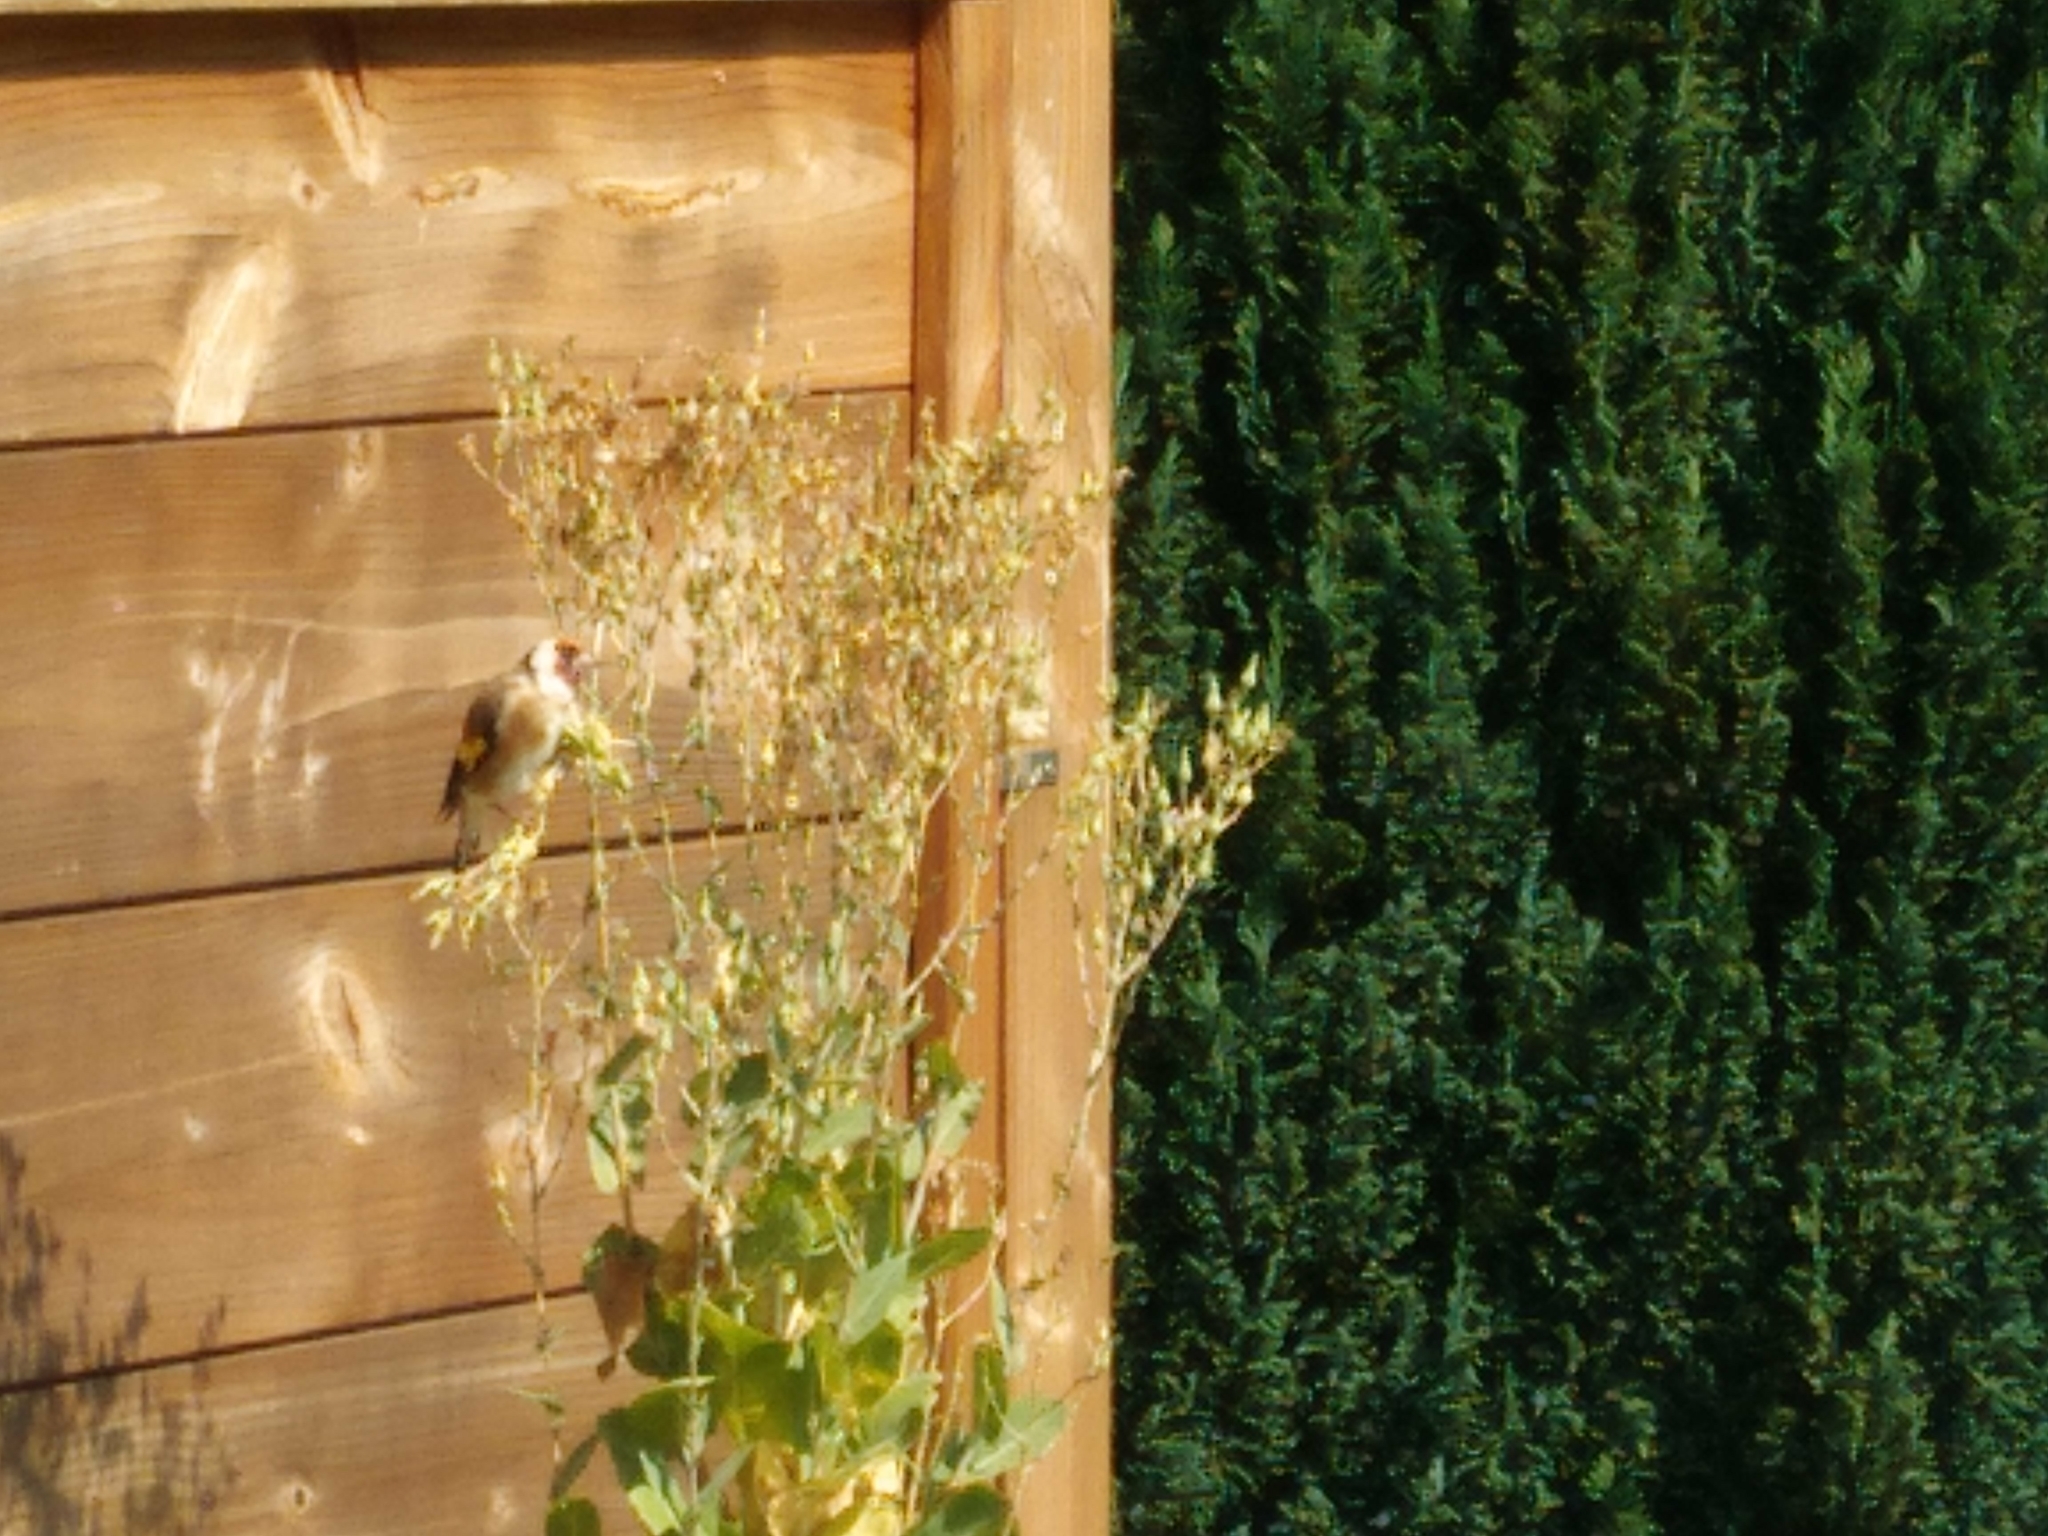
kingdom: Animalia
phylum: Chordata
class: Aves
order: Passeriformes
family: Fringillidae
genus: Carduelis
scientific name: Carduelis carduelis
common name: European goldfinch
